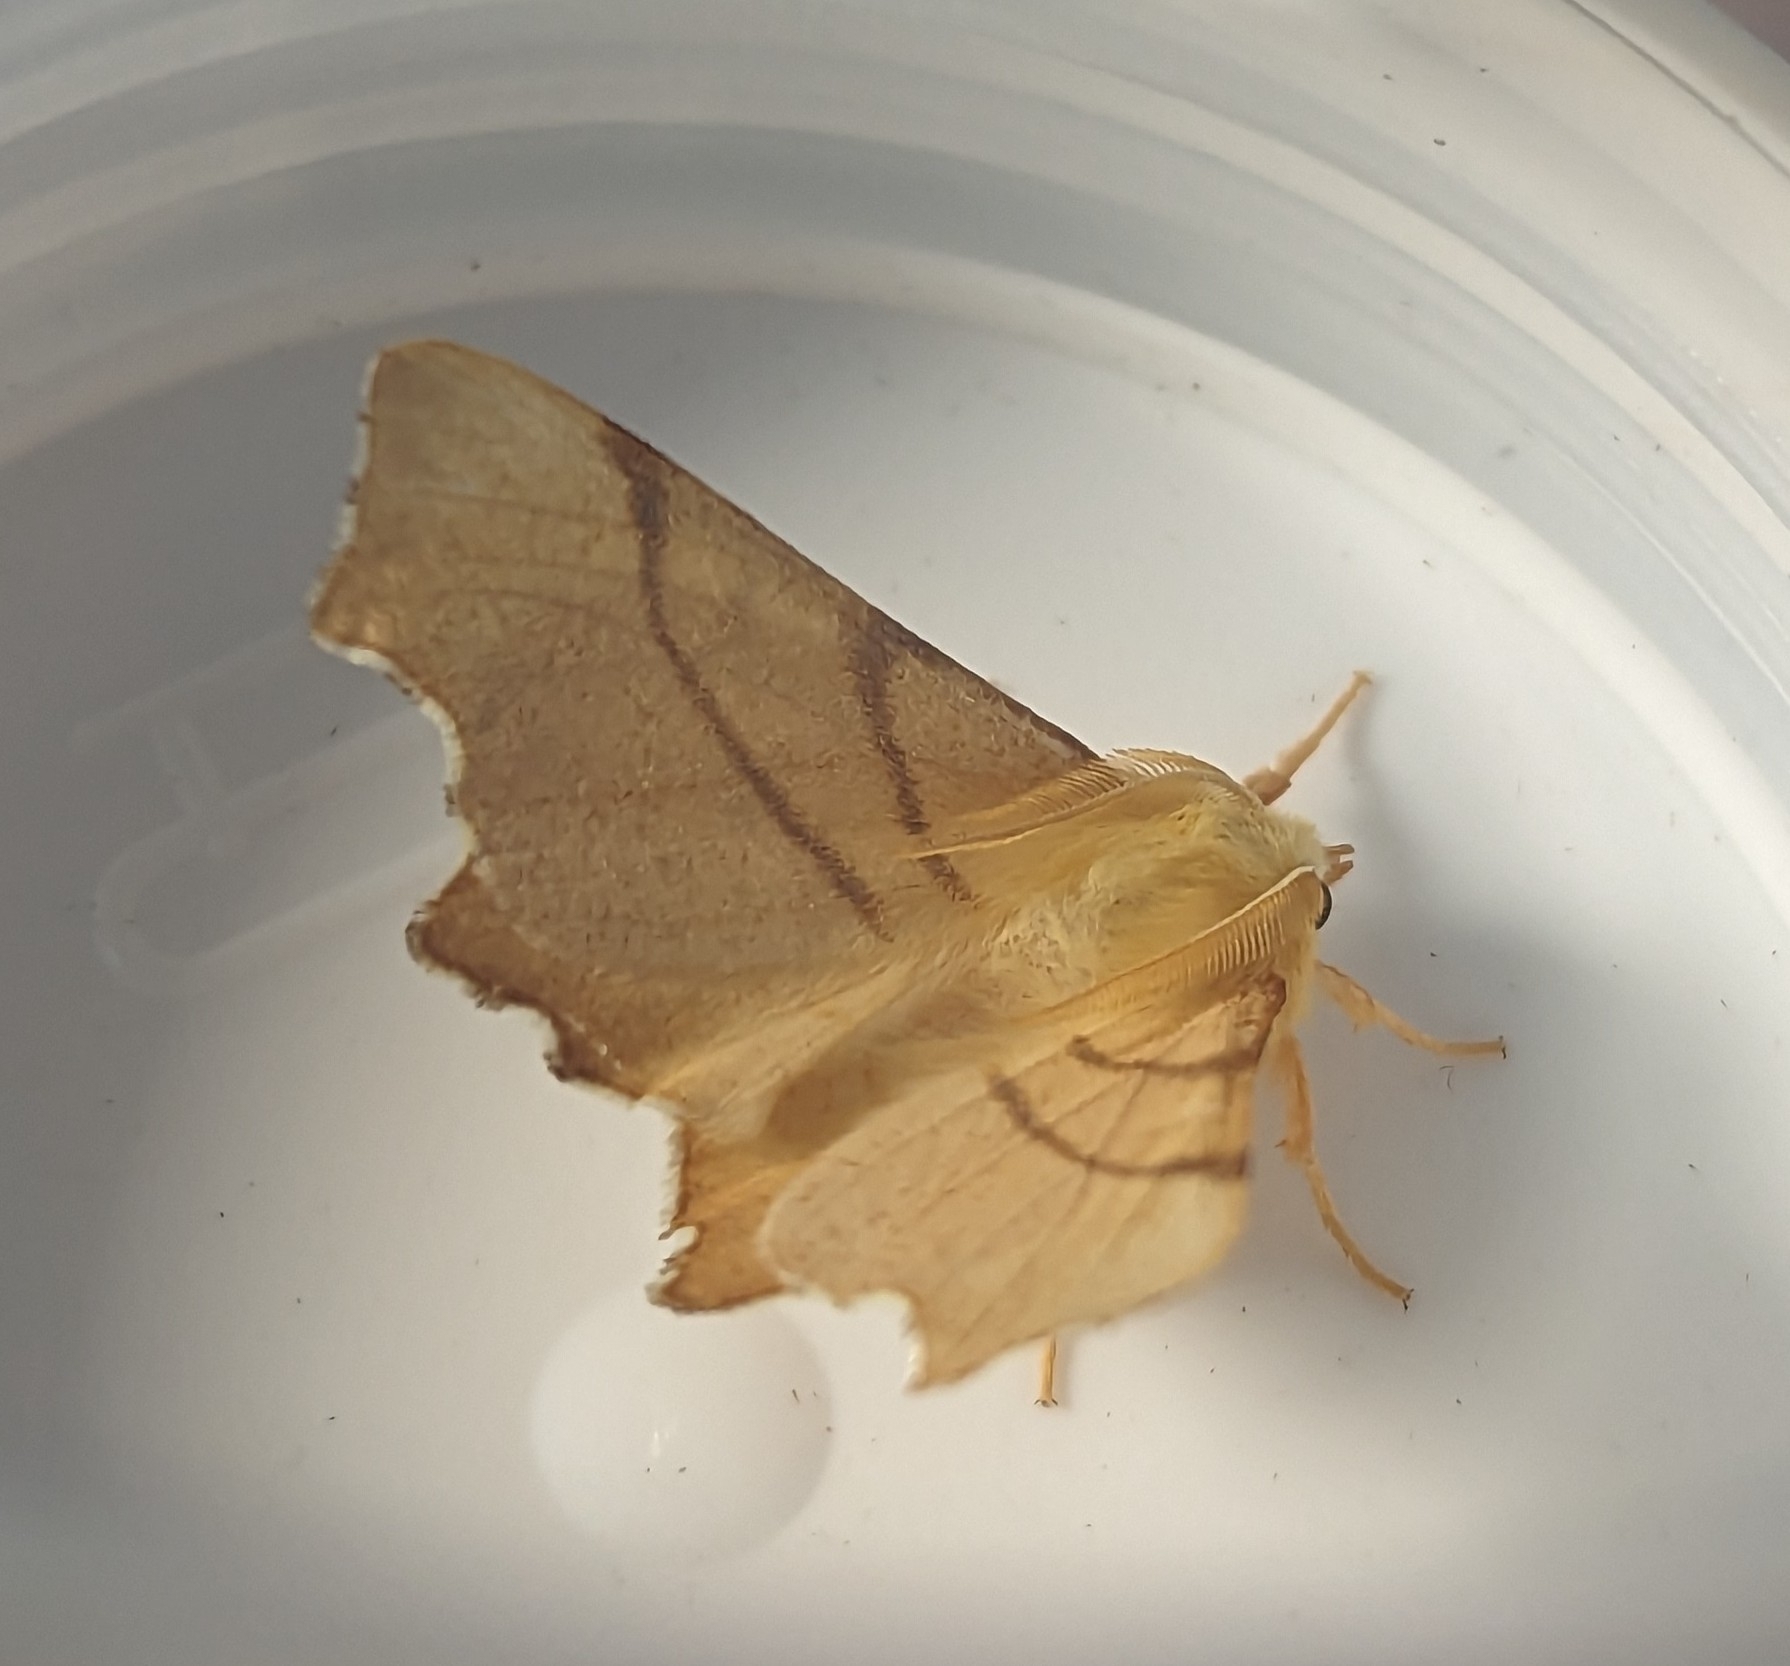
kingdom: Animalia
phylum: Arthropoda
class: Insecta
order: Lepidoptera
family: Geometridae
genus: Ennomos
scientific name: Ennomos erosaria
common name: September thorn
